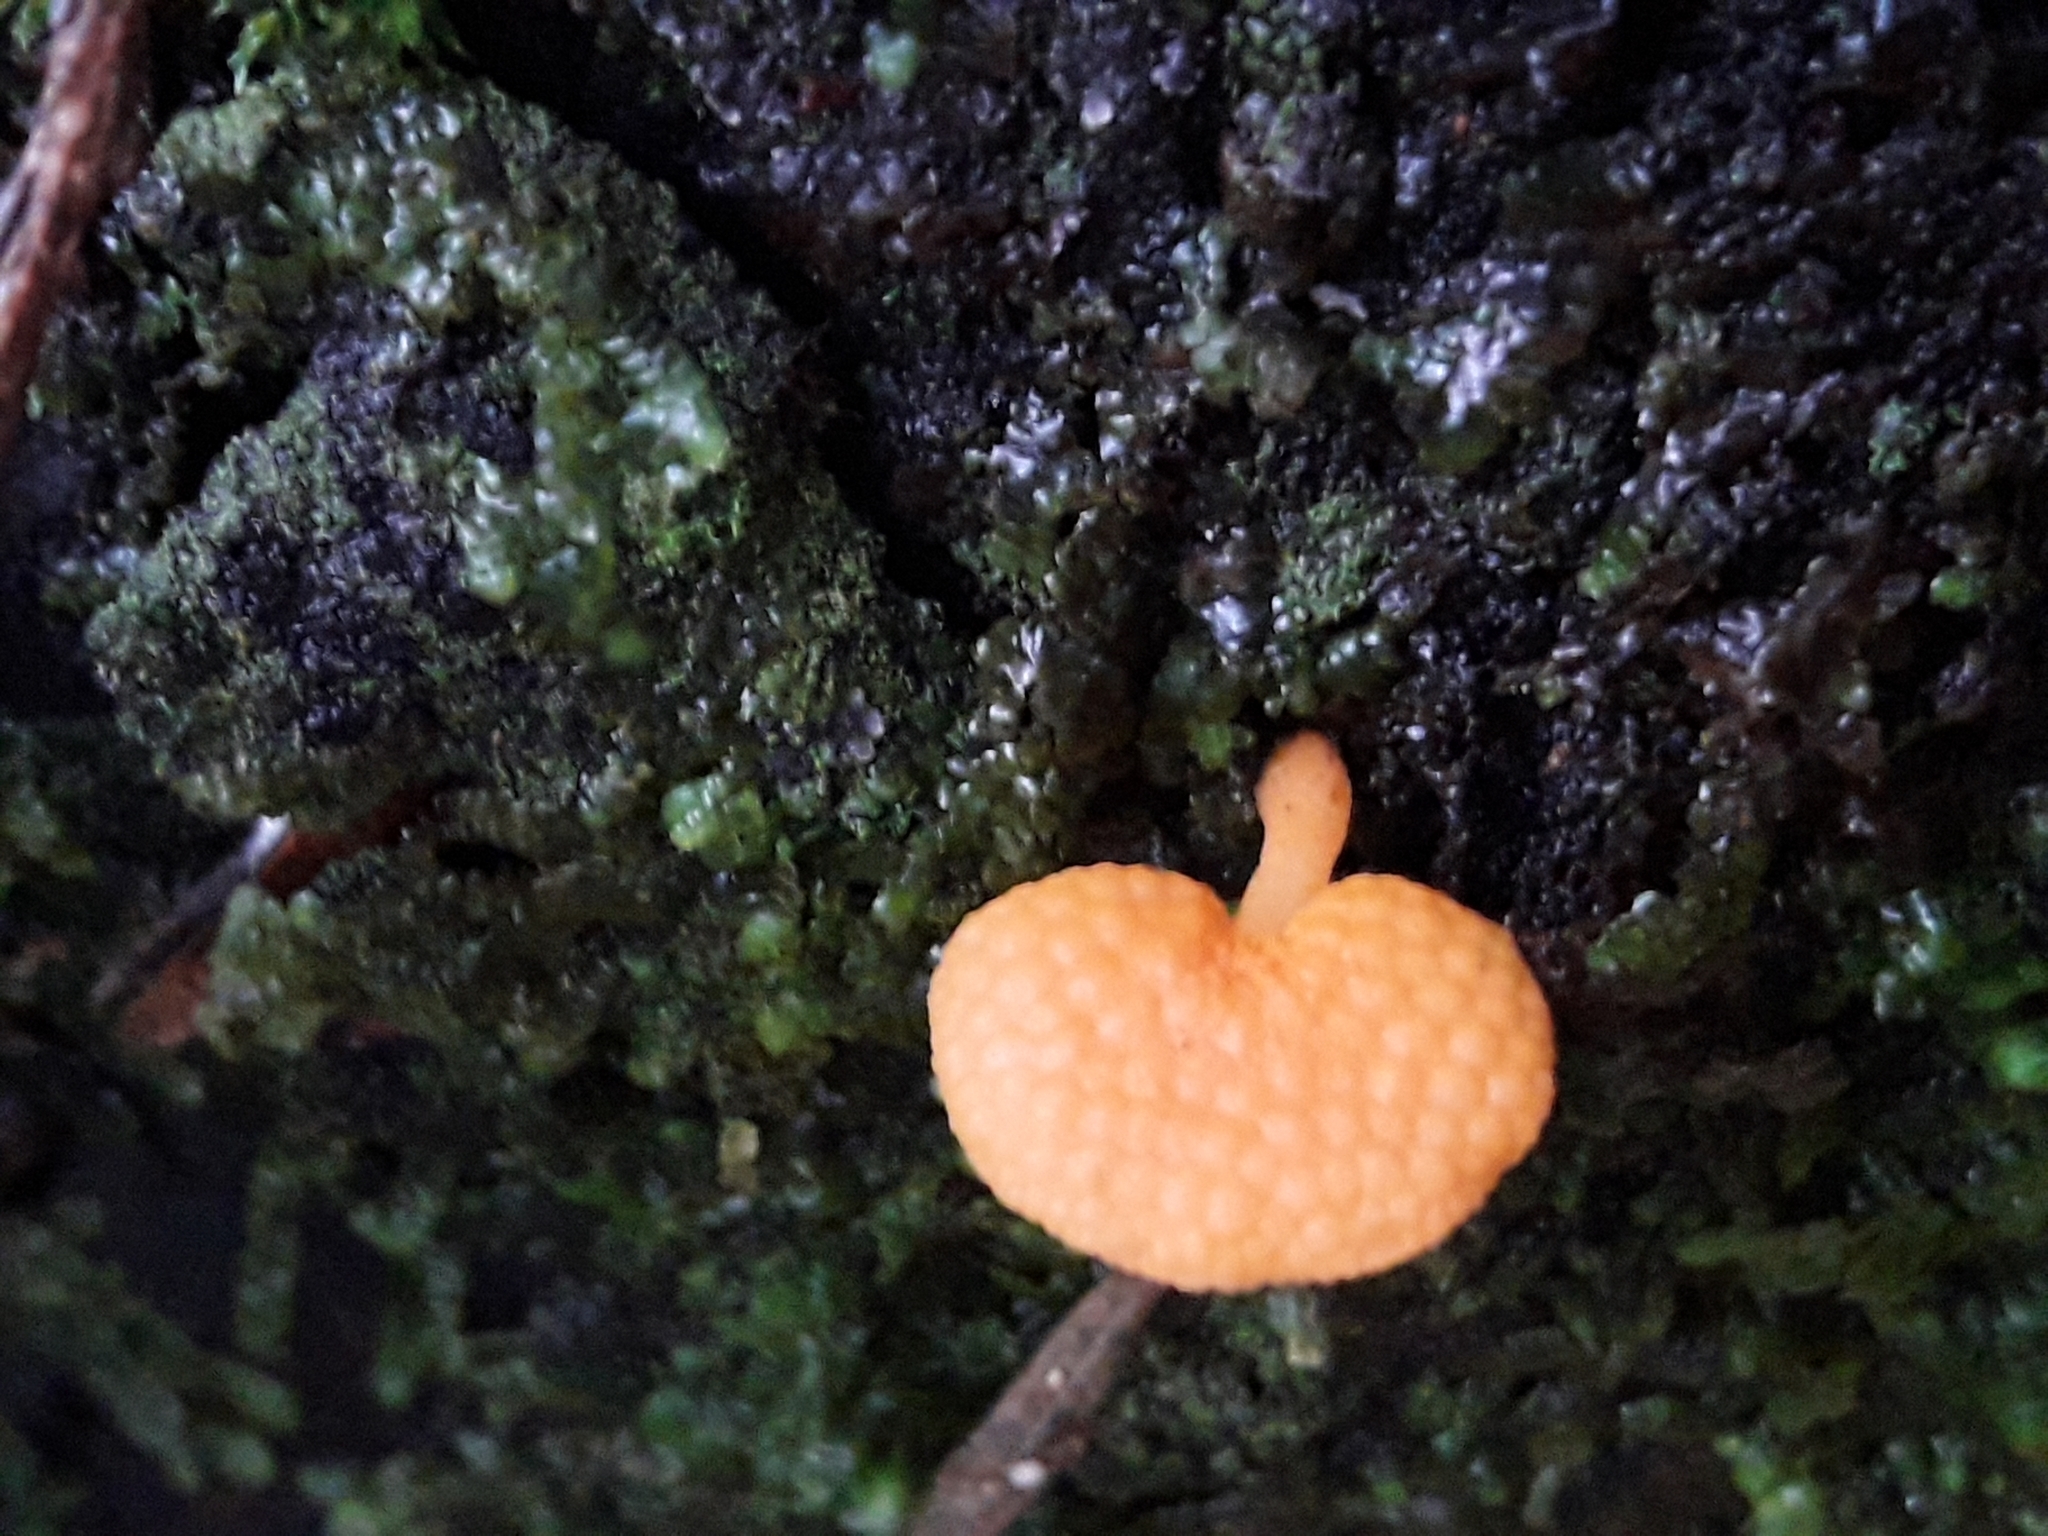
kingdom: Fungi
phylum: Basidiomycota
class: Agaricomycetes
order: Agaricales
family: Mycenaceae
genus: Favolaschia
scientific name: Favolaschia claudopus
